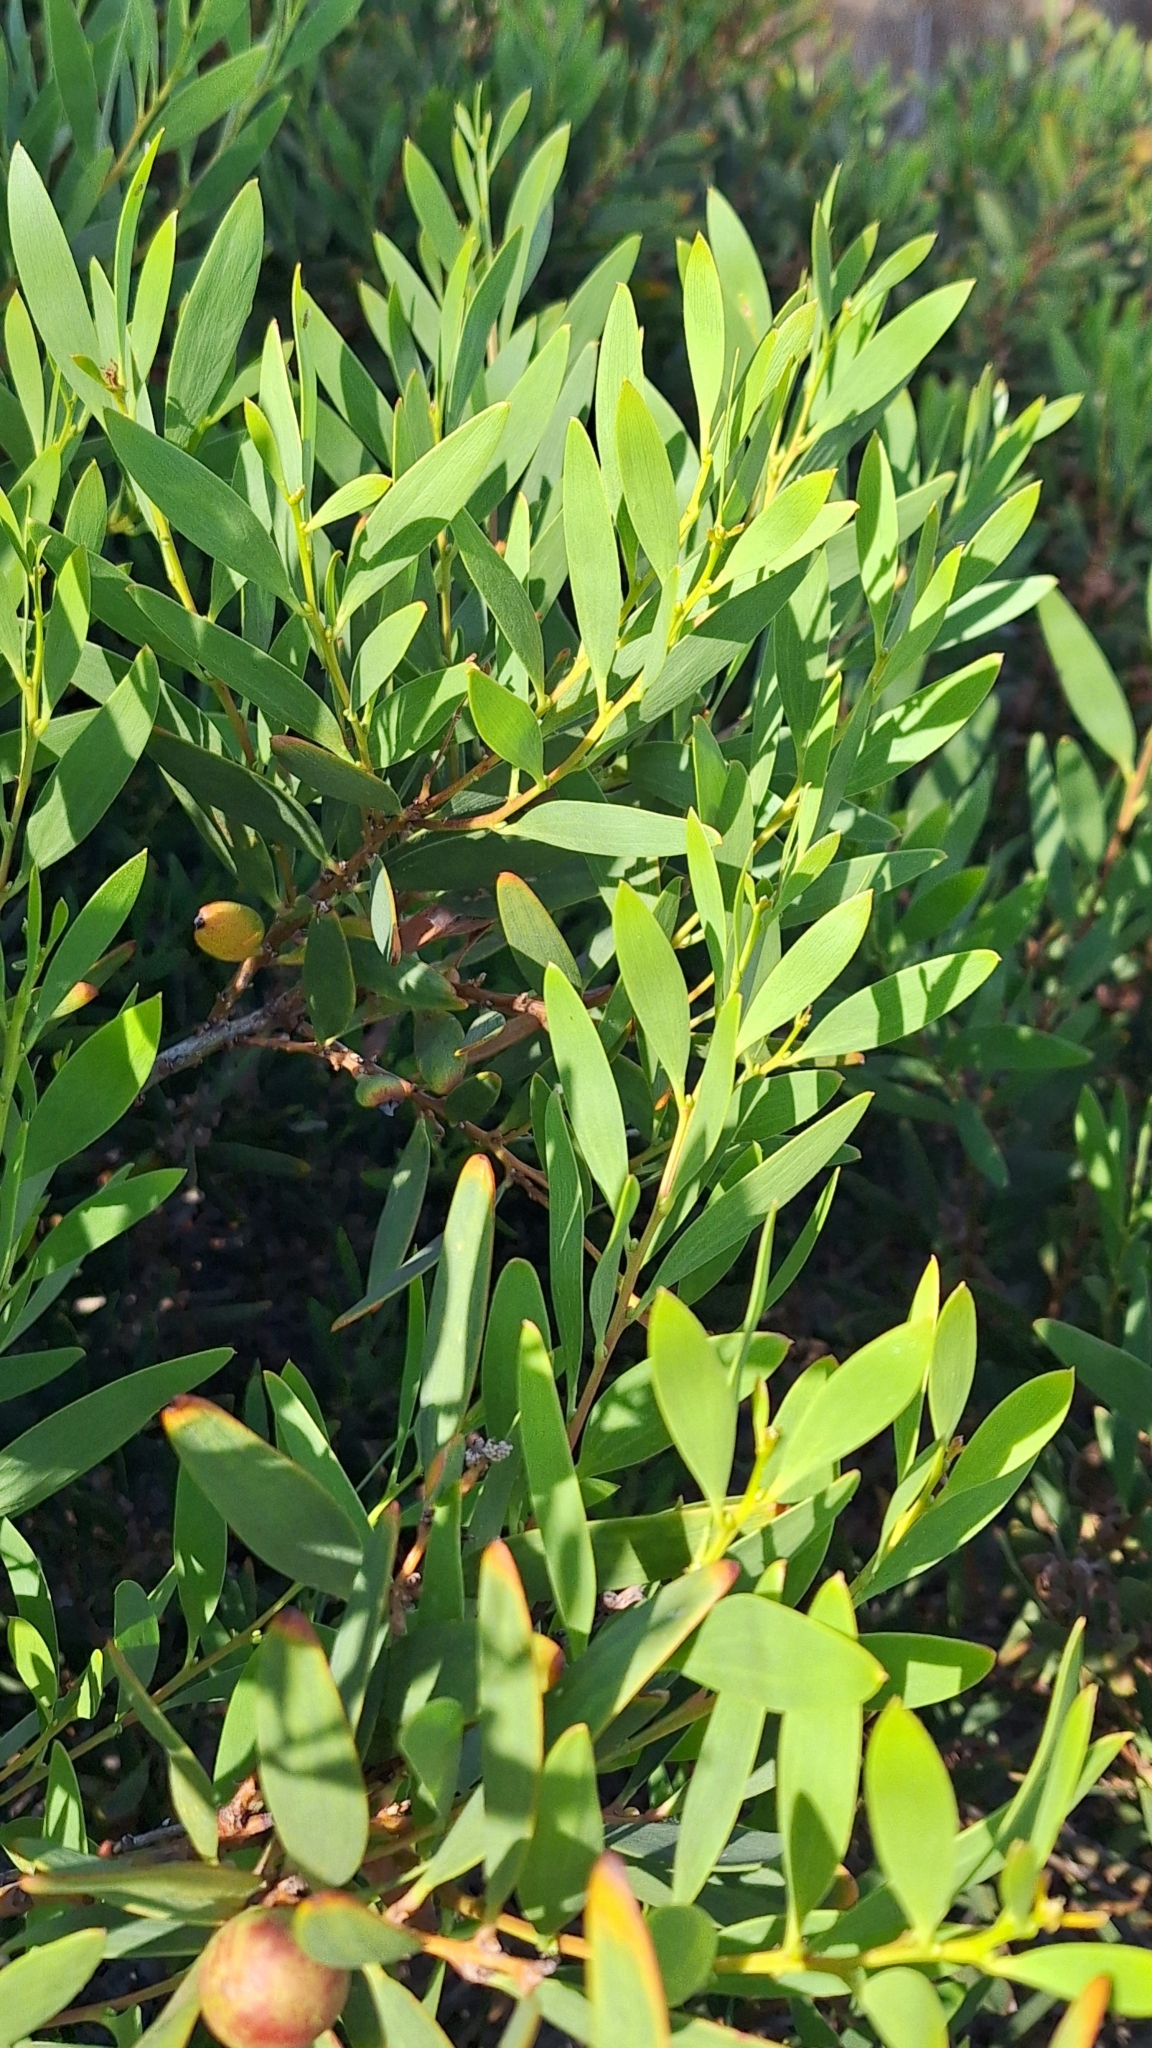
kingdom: Plantae
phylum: Tracheophyta
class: Magnoliopsida
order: Fabales
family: Fabaceae
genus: Acacia
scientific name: Acacia longifolia
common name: Sydney golden wattle
